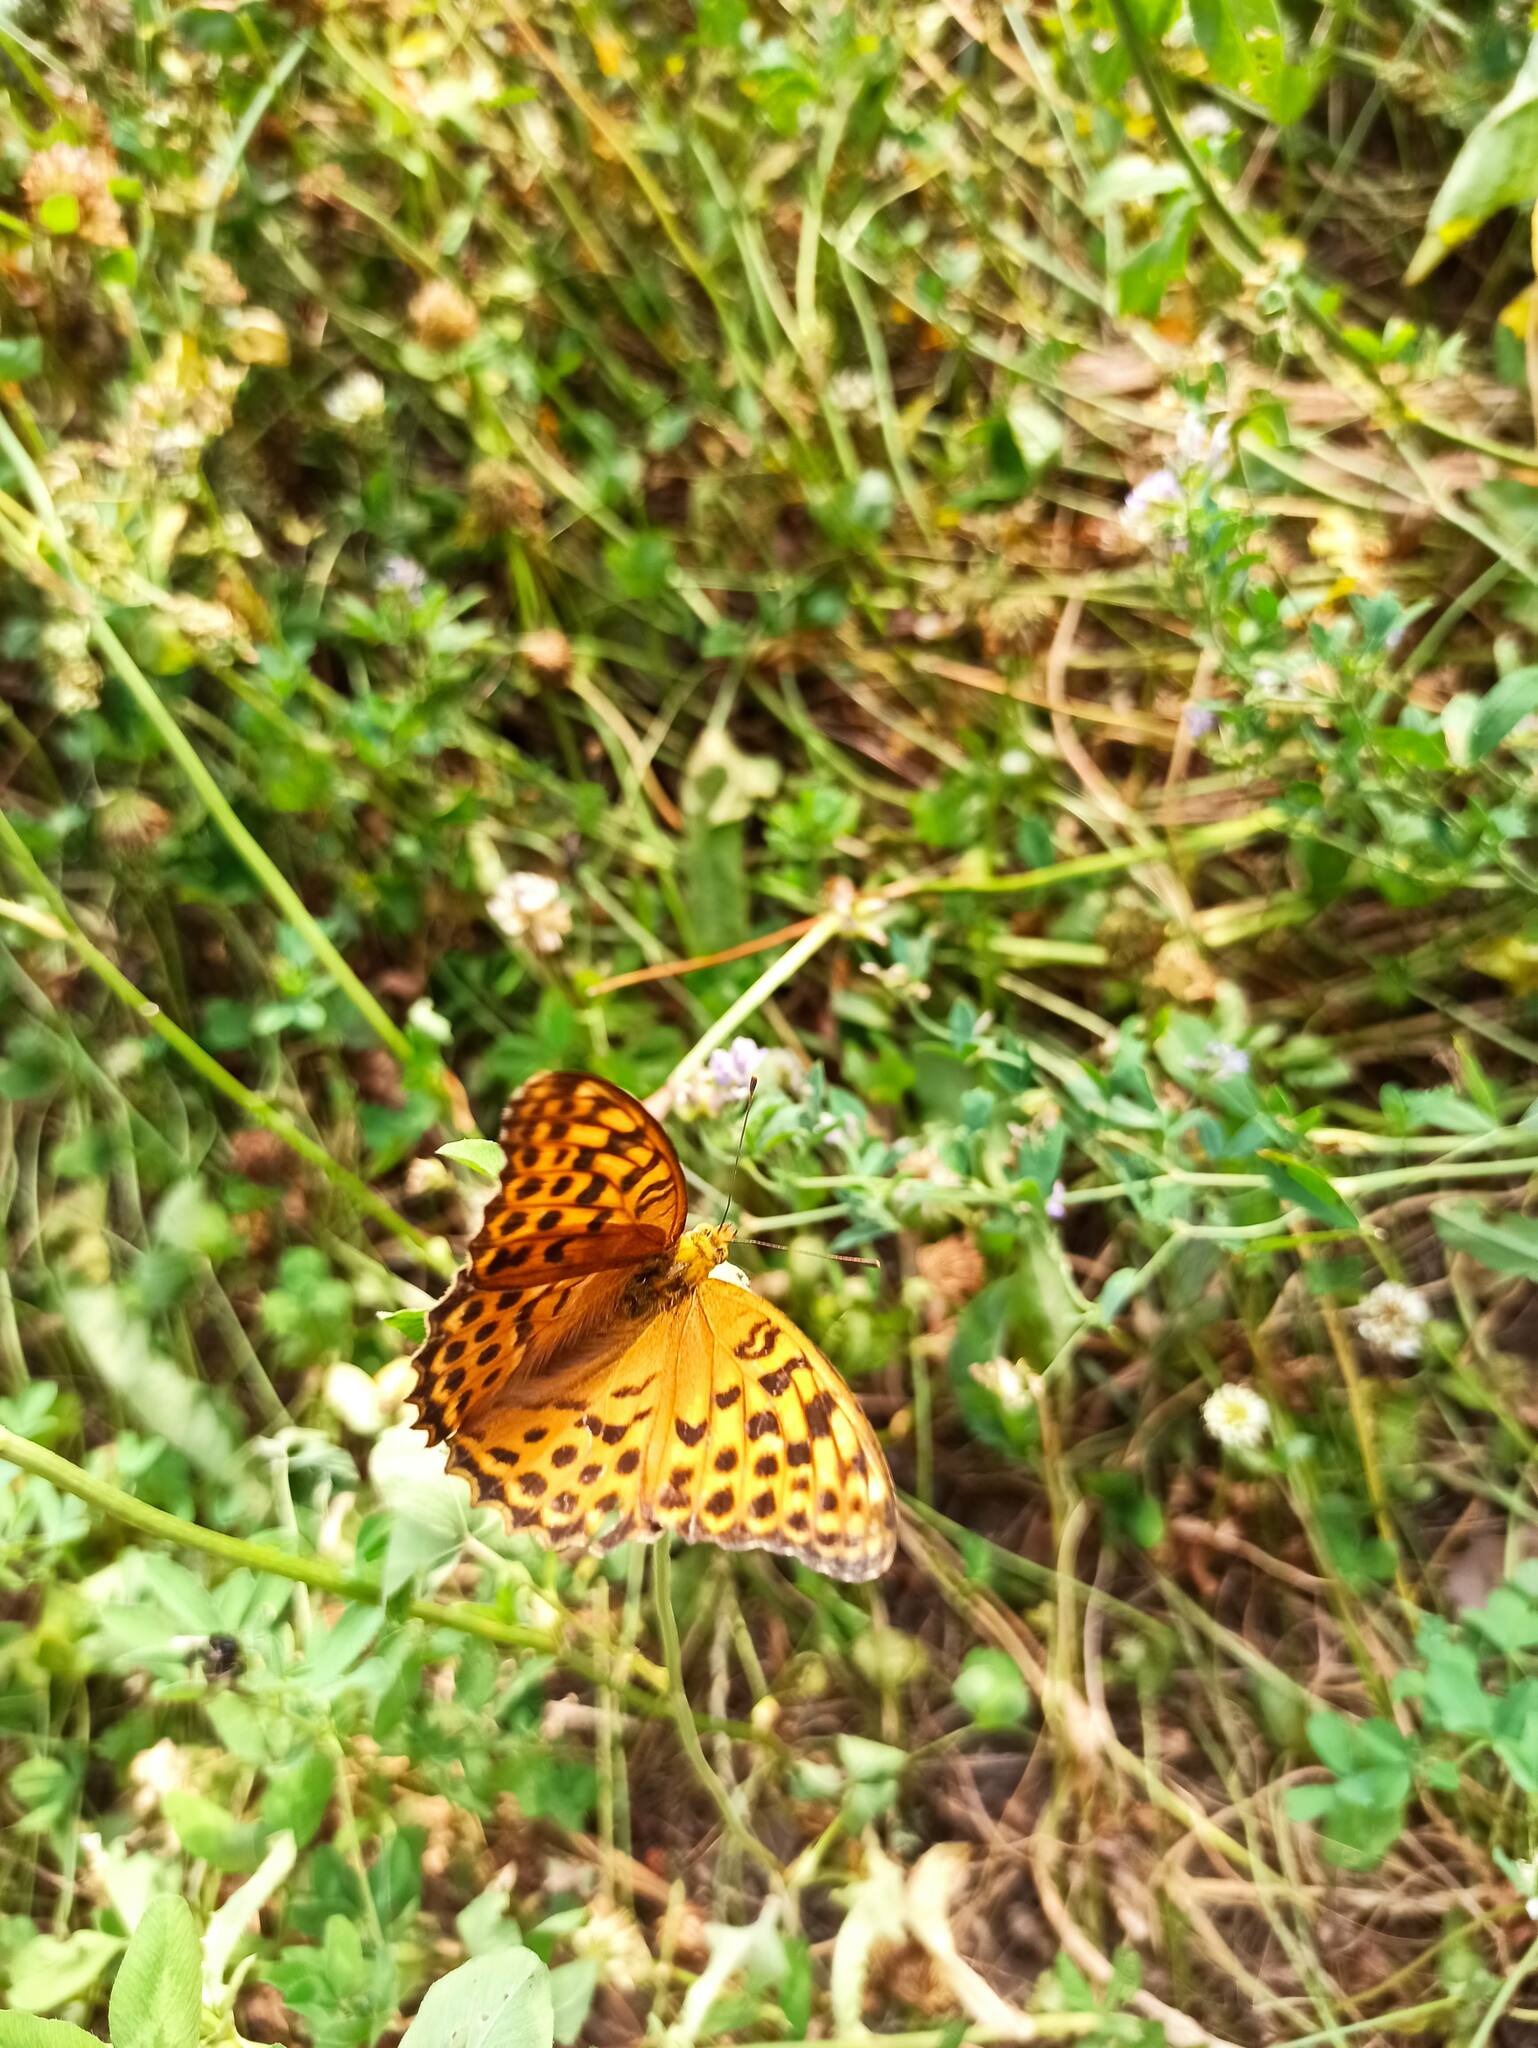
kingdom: Animalia
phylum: Arthropoda
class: Insecta
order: Lepidoptera
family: Nymphalidae
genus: Argynnis
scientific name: Argynnis paphia
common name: Silver-washed fritillary
